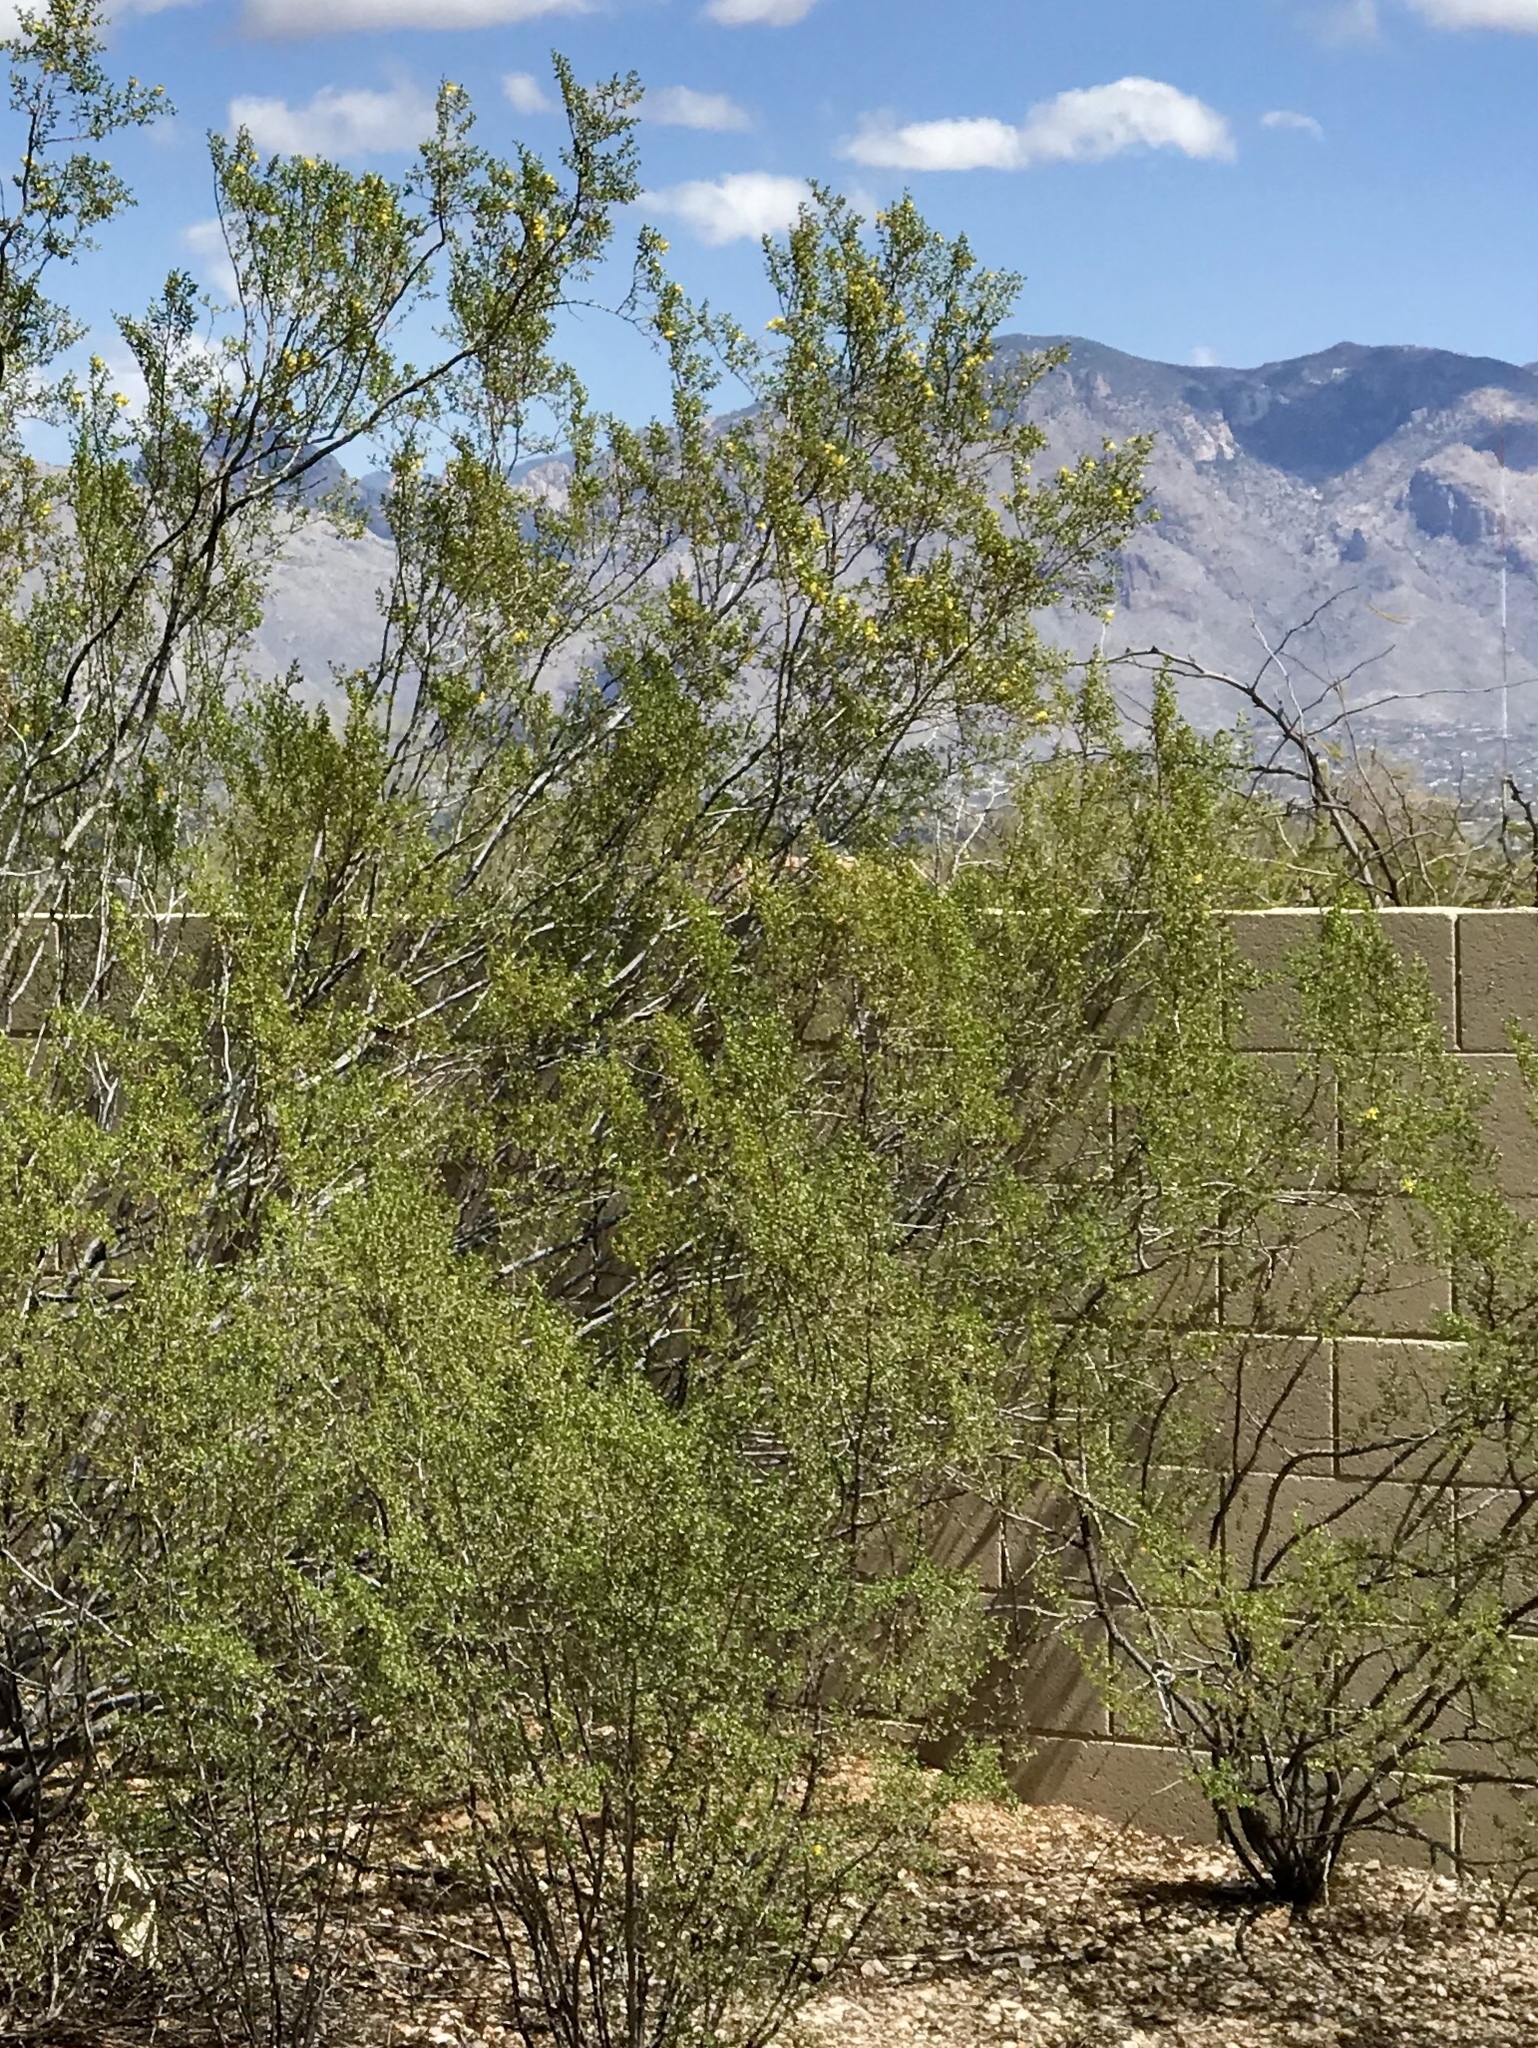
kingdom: Plantae
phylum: Tracheophyta
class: Magnoliopsida
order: Zygophyllales
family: Zygophyllaceae
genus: Larrea
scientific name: Larrea tridentata
